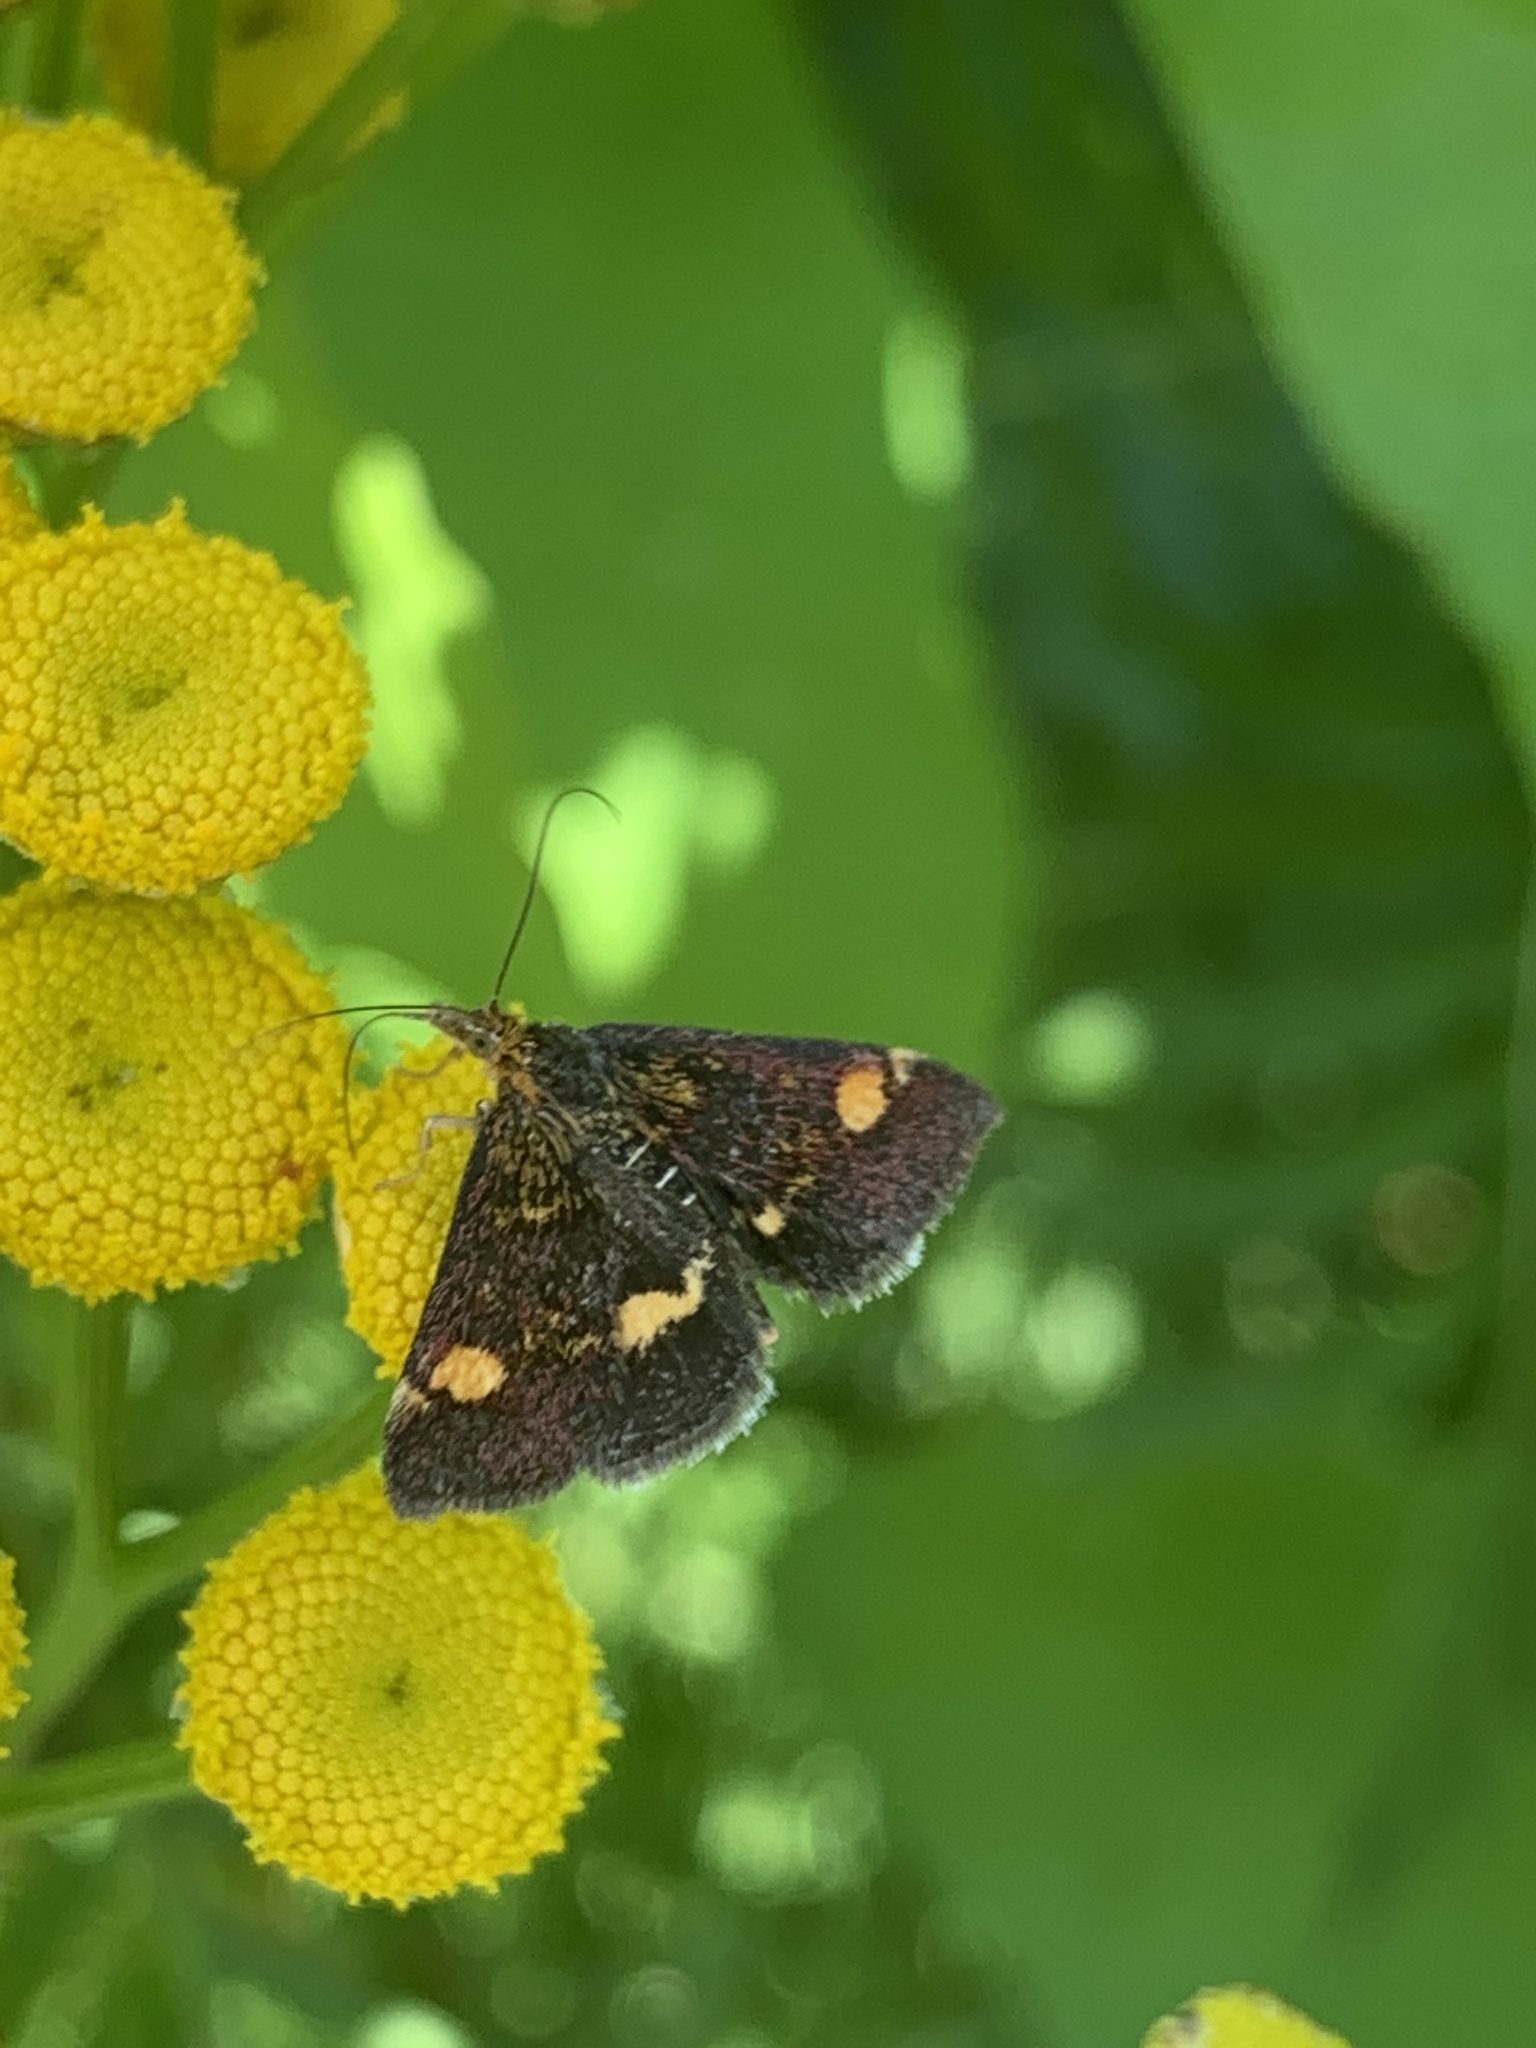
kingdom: Animalia
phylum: Arthropoda
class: Insecta
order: Lepidoptera
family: Crambidae
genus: Pyrausta
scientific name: Pyrausta aurata
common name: Small purple & gold
